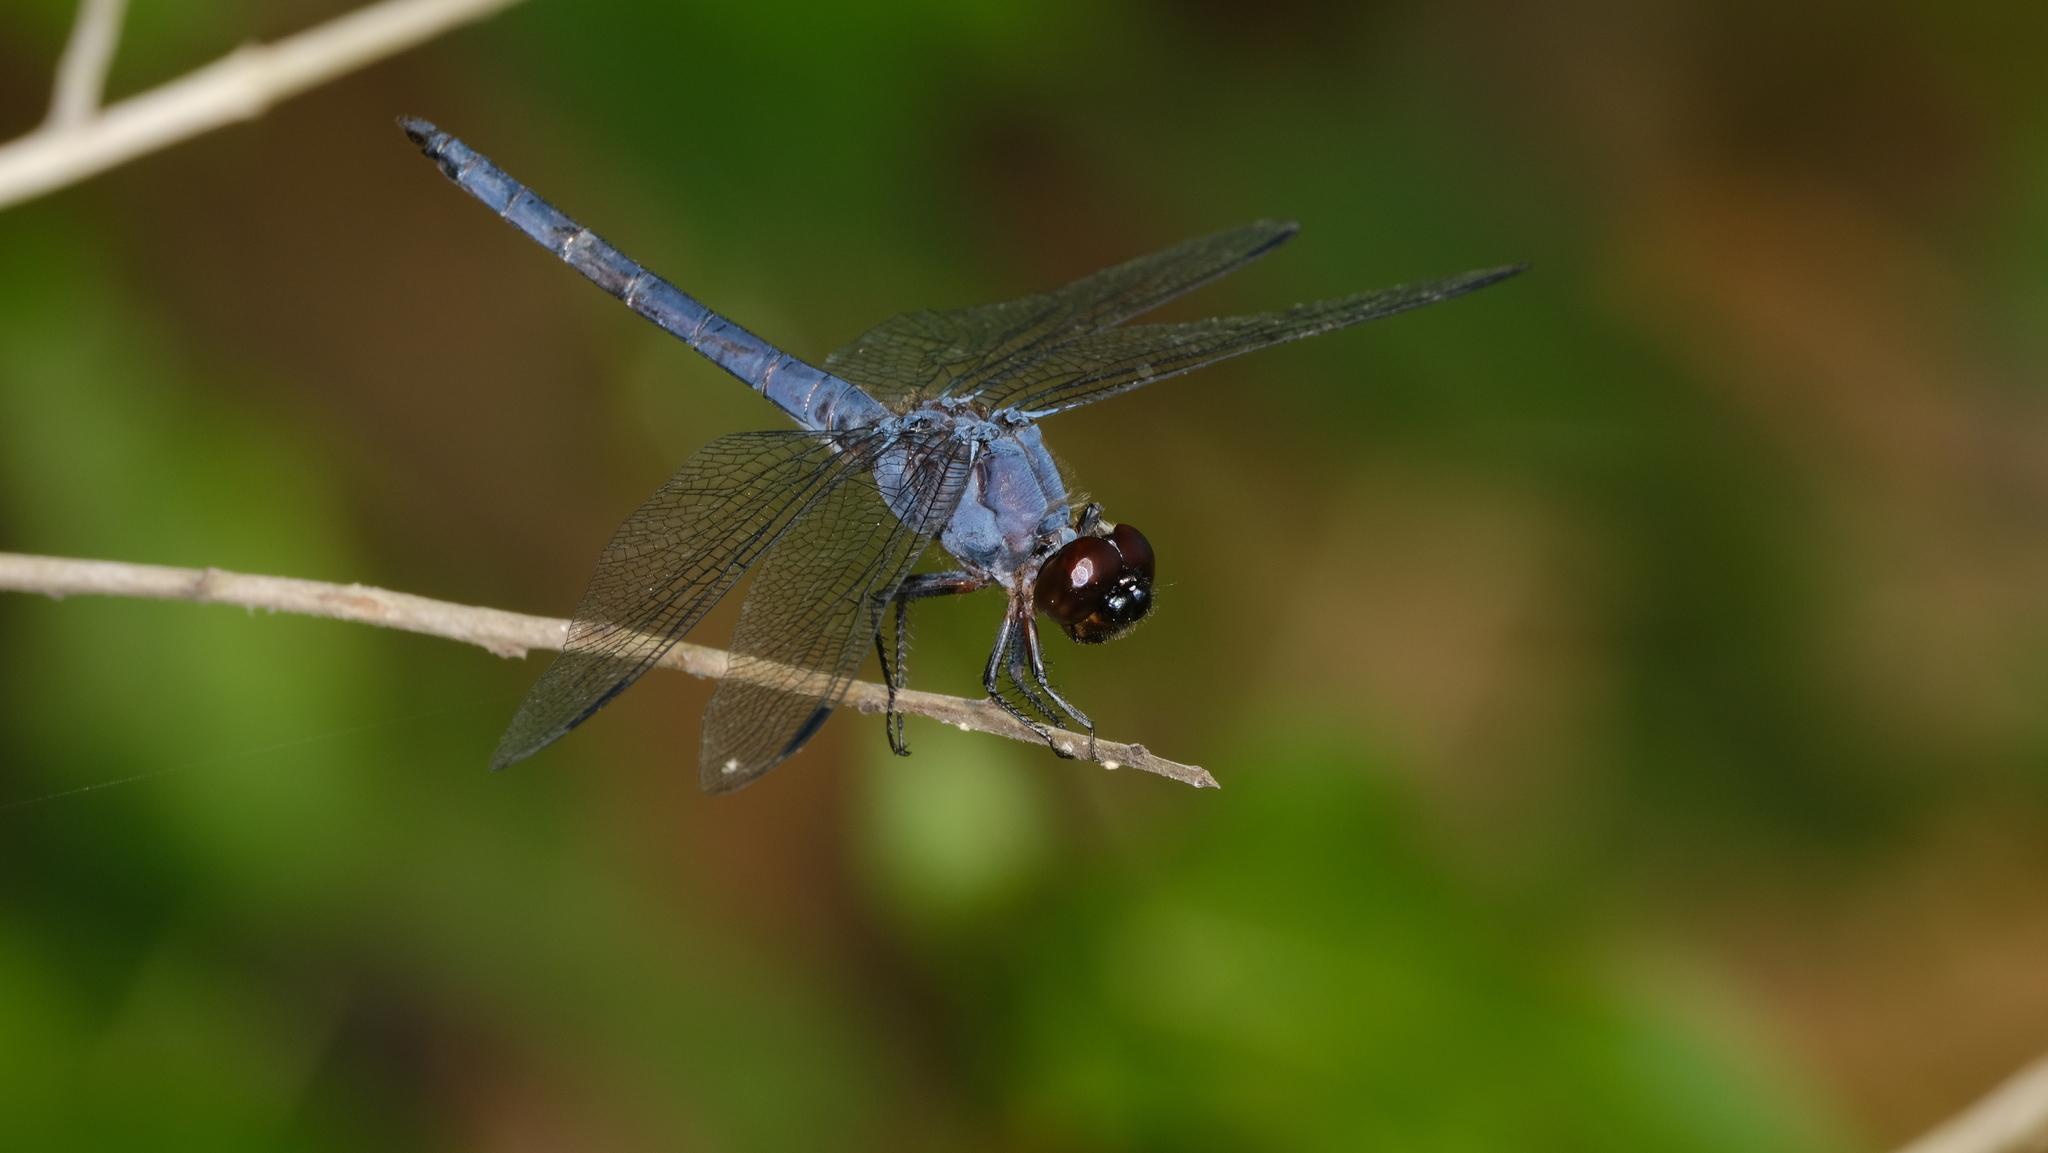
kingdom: Animalia
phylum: Arthropoda
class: Insecta
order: Odonata
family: Libellulidae
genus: Libellula
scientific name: Libellula incesta
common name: Slaty skimmer
